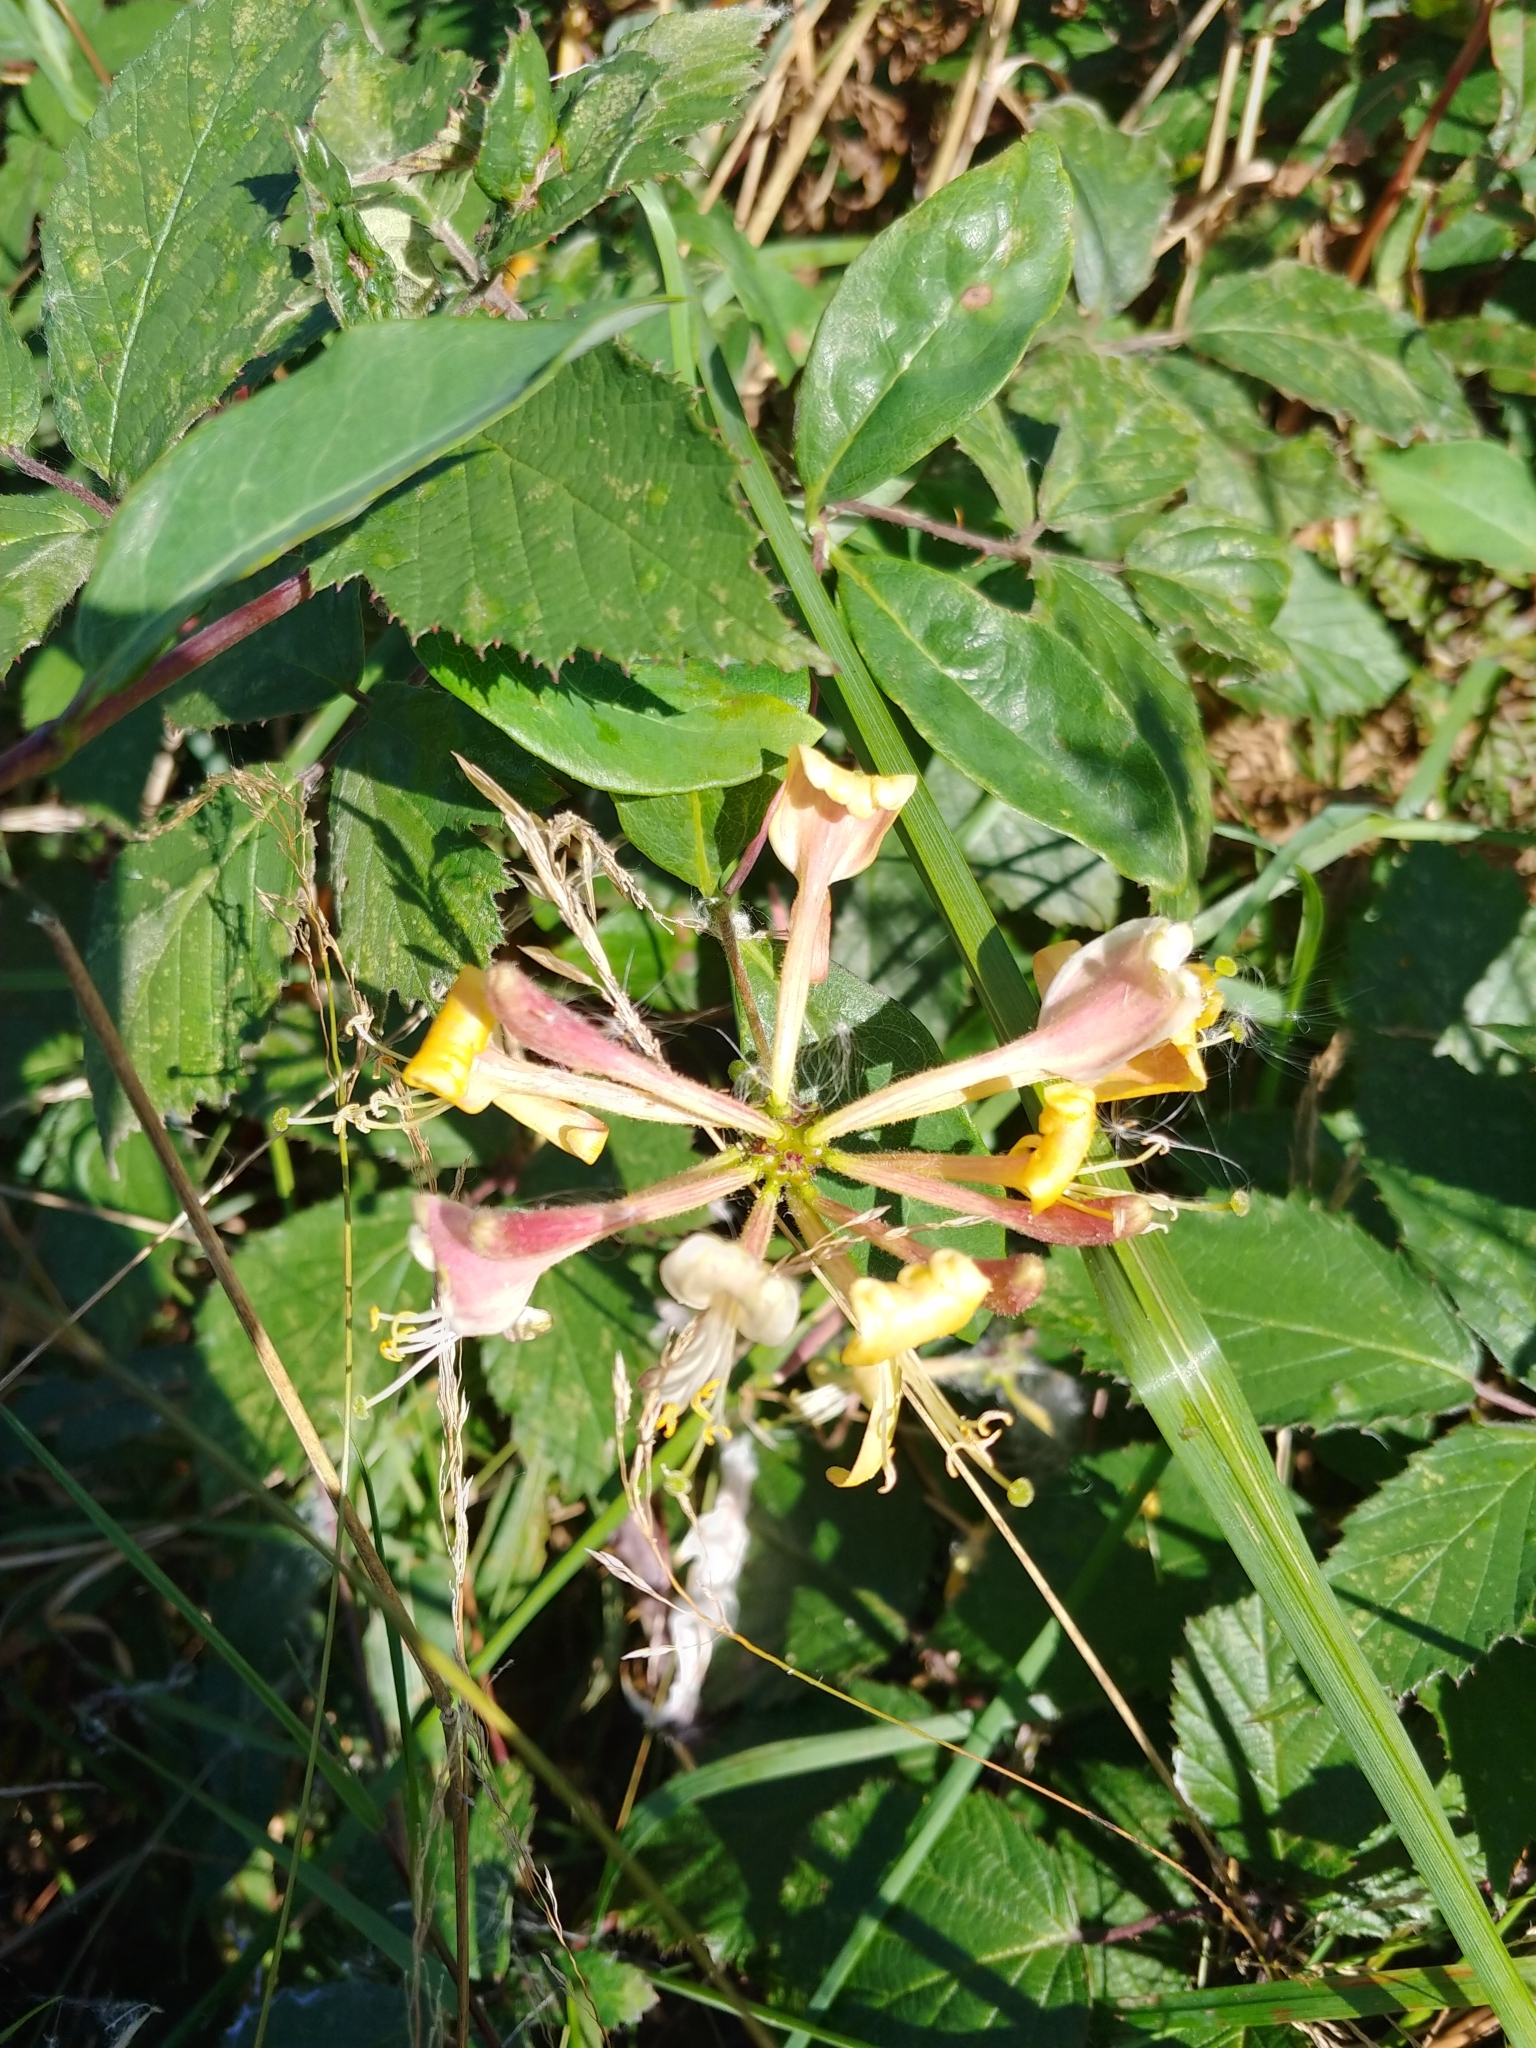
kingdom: Plantae
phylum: Tracheophyta
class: Magnoliopsida
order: Dipsacales
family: Caprifoliaceae
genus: Lonicera
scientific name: Lonicera periclymenum
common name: European honeysuckle
